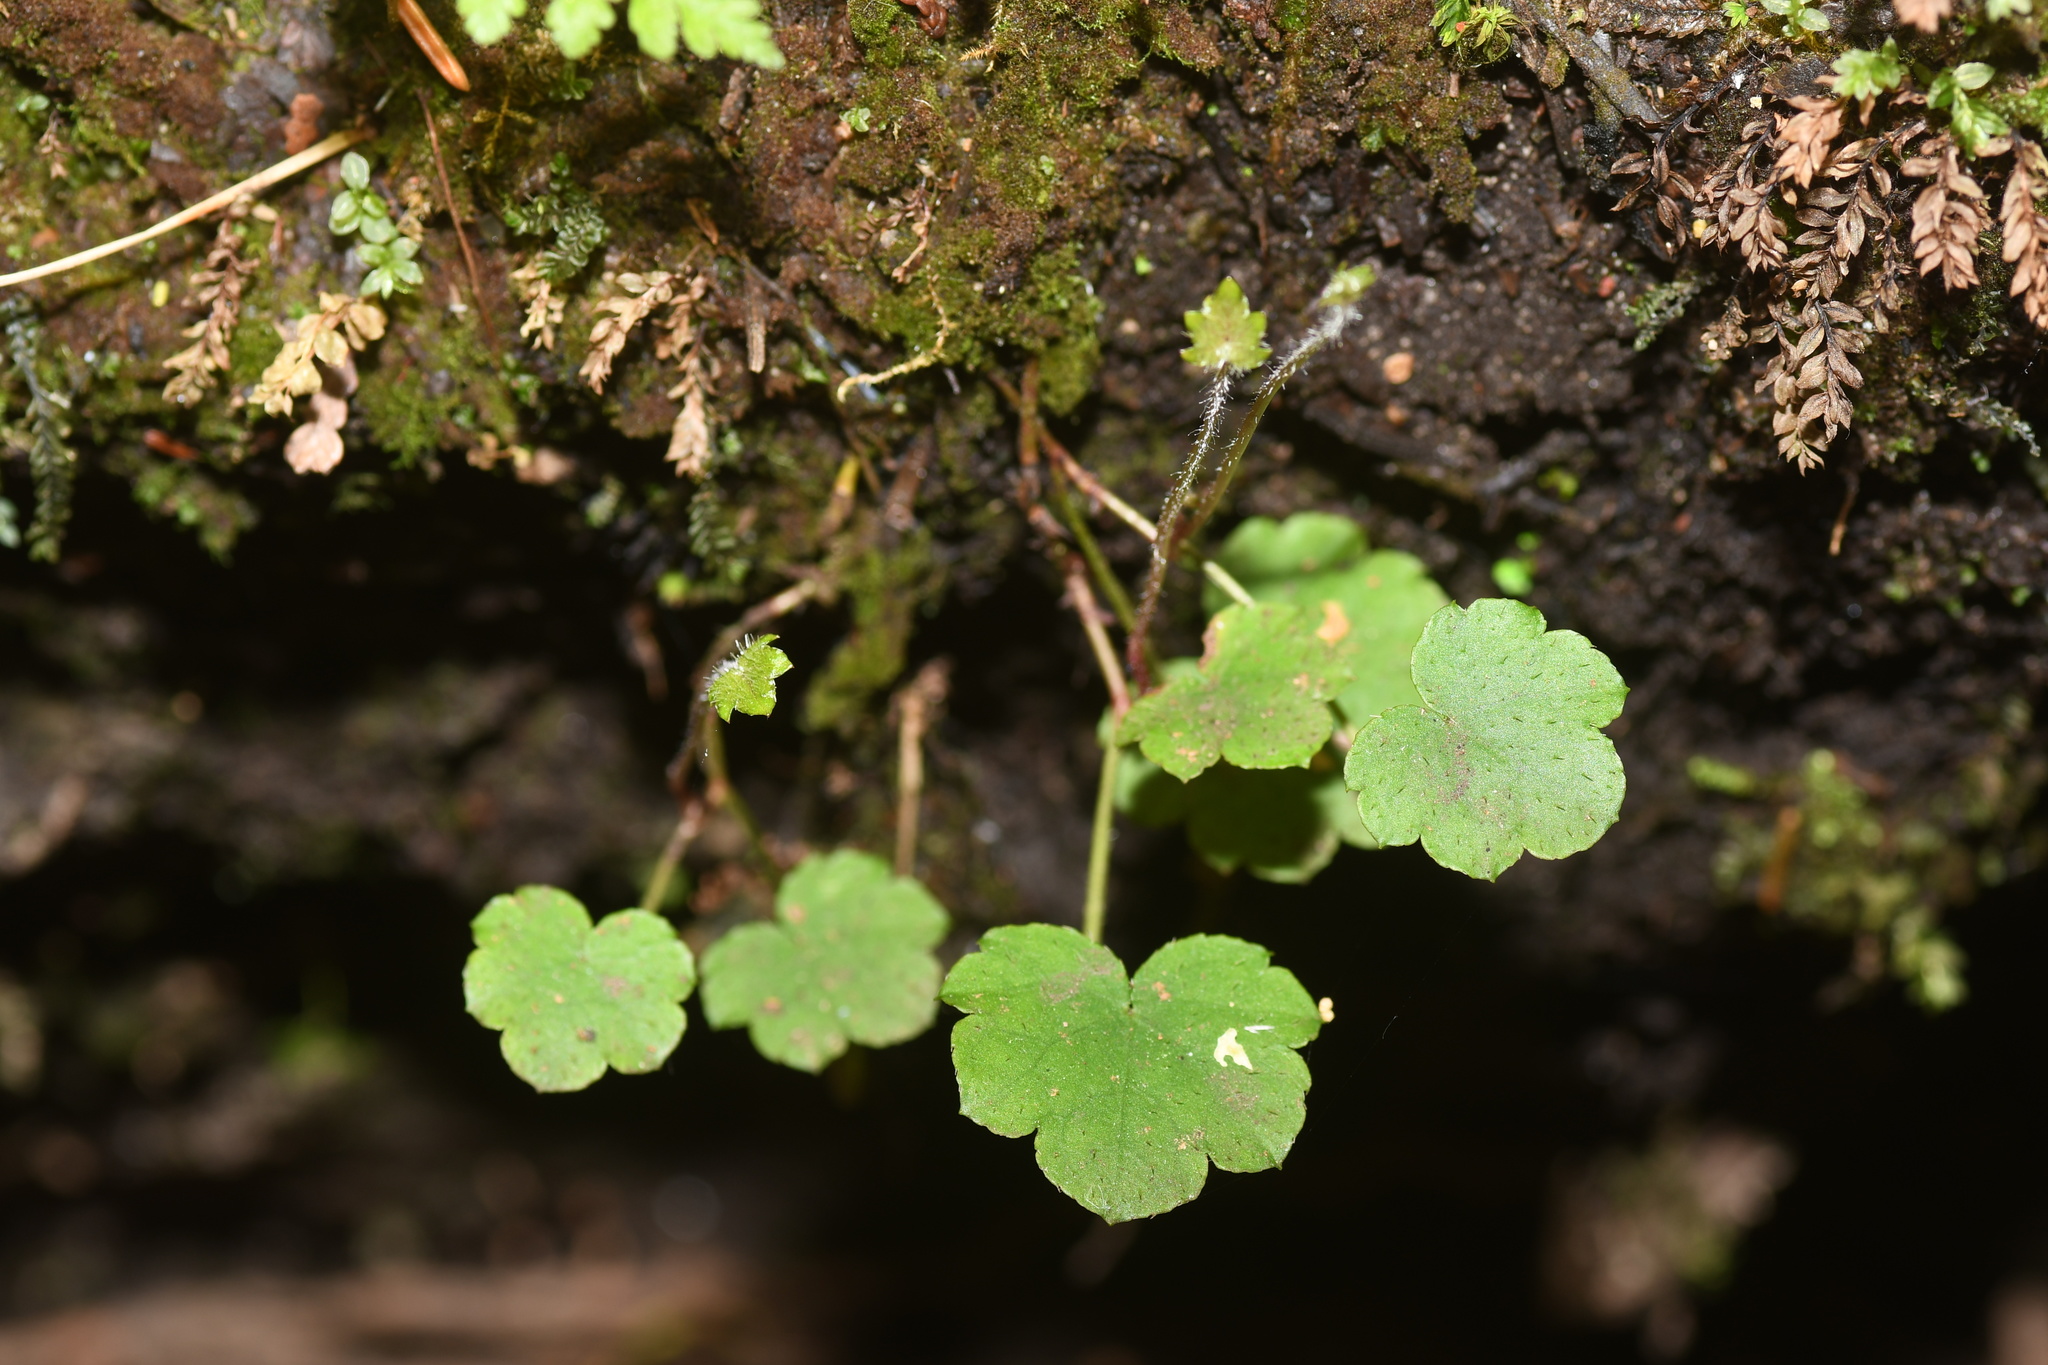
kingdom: Plantae
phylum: Tracheophyta
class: Magnoliopsida
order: Saxifragales
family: Saxifragaceae
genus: Mitella
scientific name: Mitella nuda
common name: Bare-stemmed bishop's-cap
